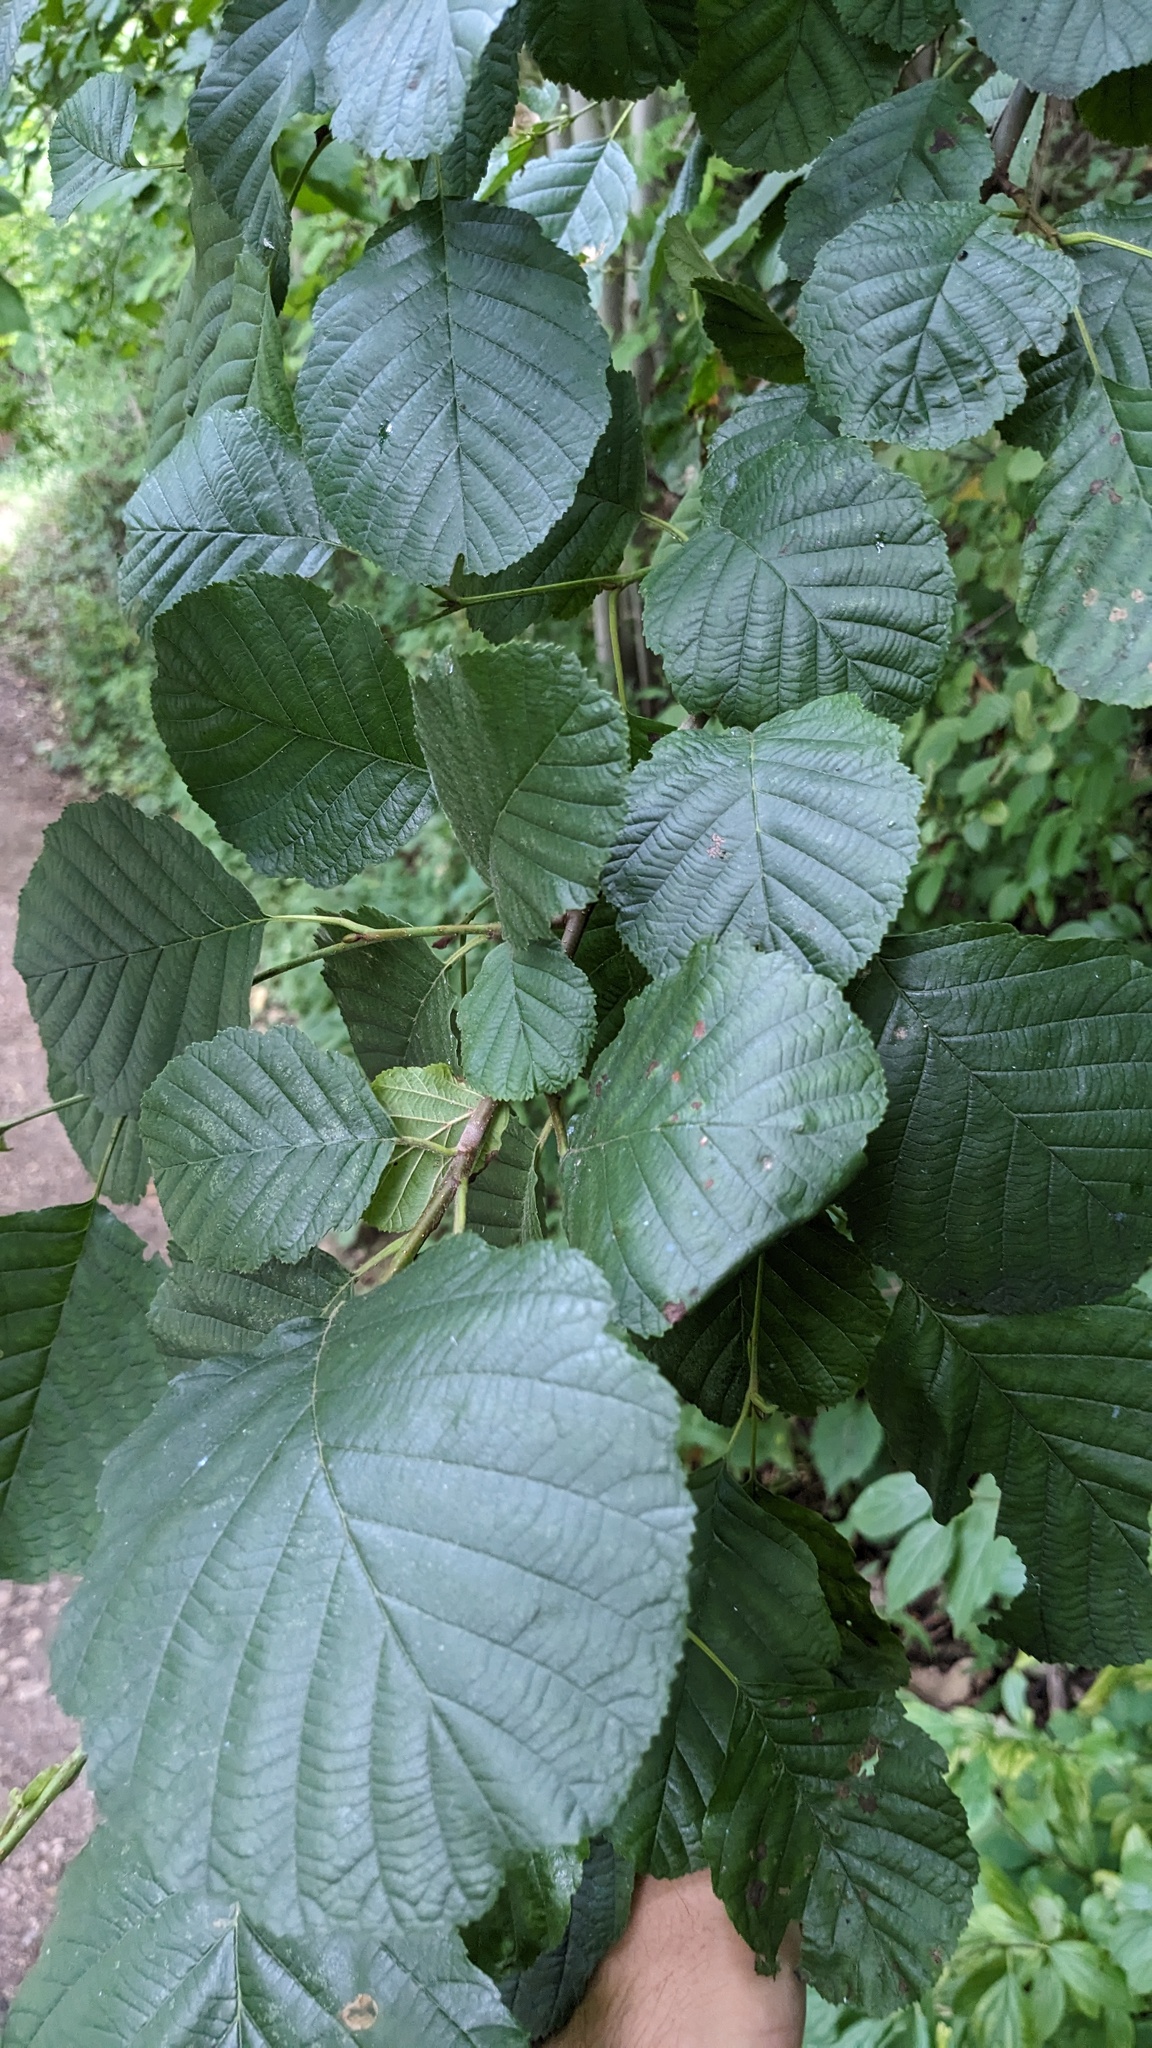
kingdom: Plantae
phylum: Tracheophyta
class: Magnoliopsida
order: Fagales
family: Betulaceae
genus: Alnus
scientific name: Alnus glutinosa
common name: Black alder
